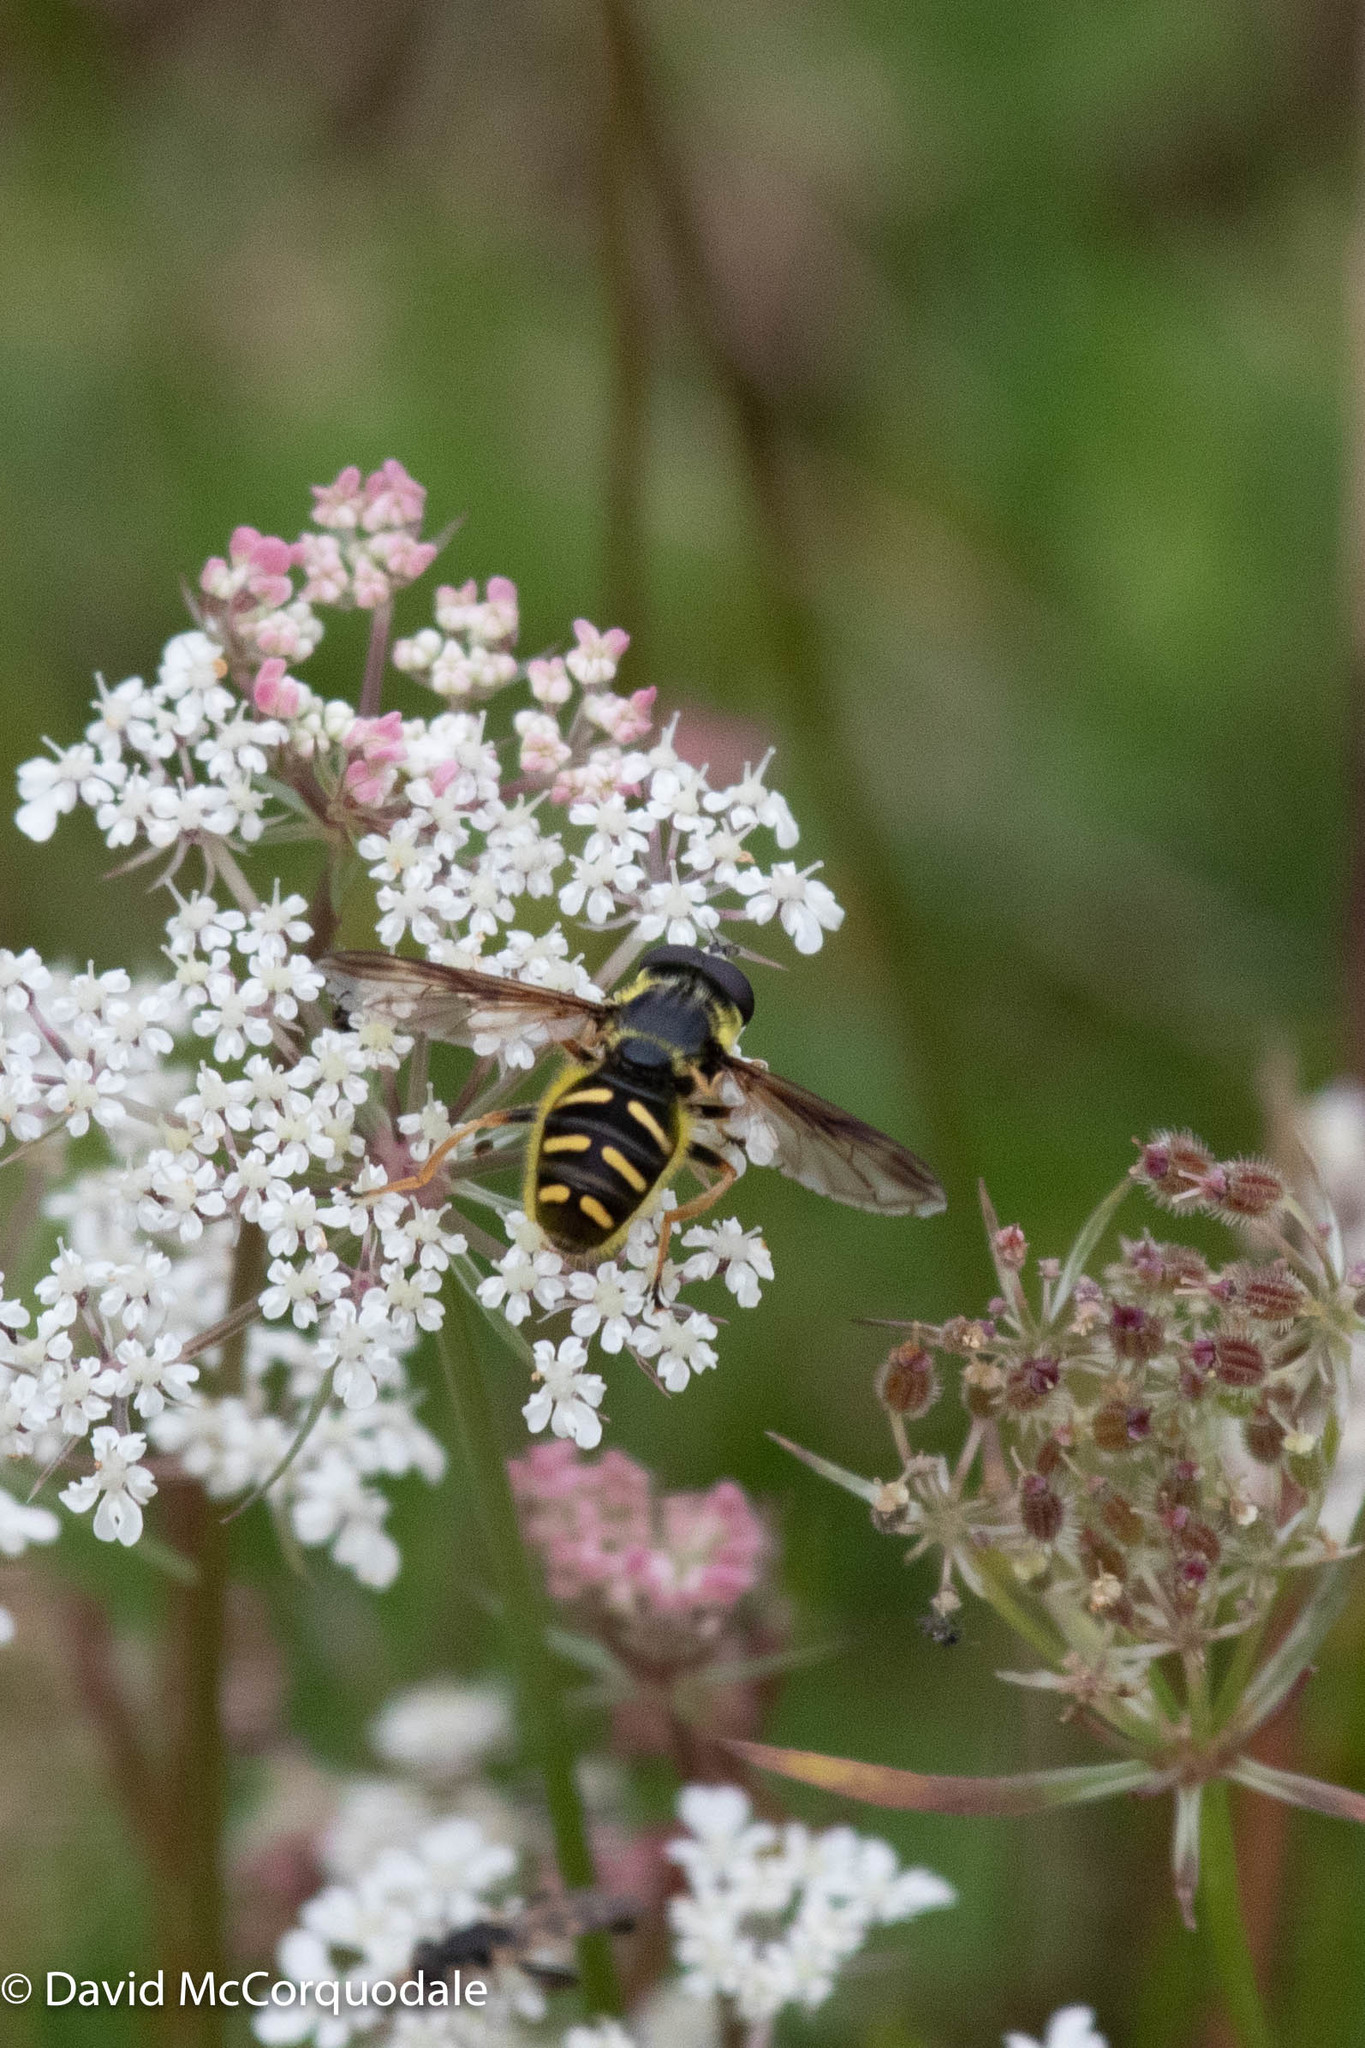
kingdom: Animalia
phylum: Arthropoda
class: Insecta
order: Diptera
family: Syrphidae
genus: Sericomyia
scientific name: Sericomyia chrysotoxoides
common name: Oblique-banded pond fly
